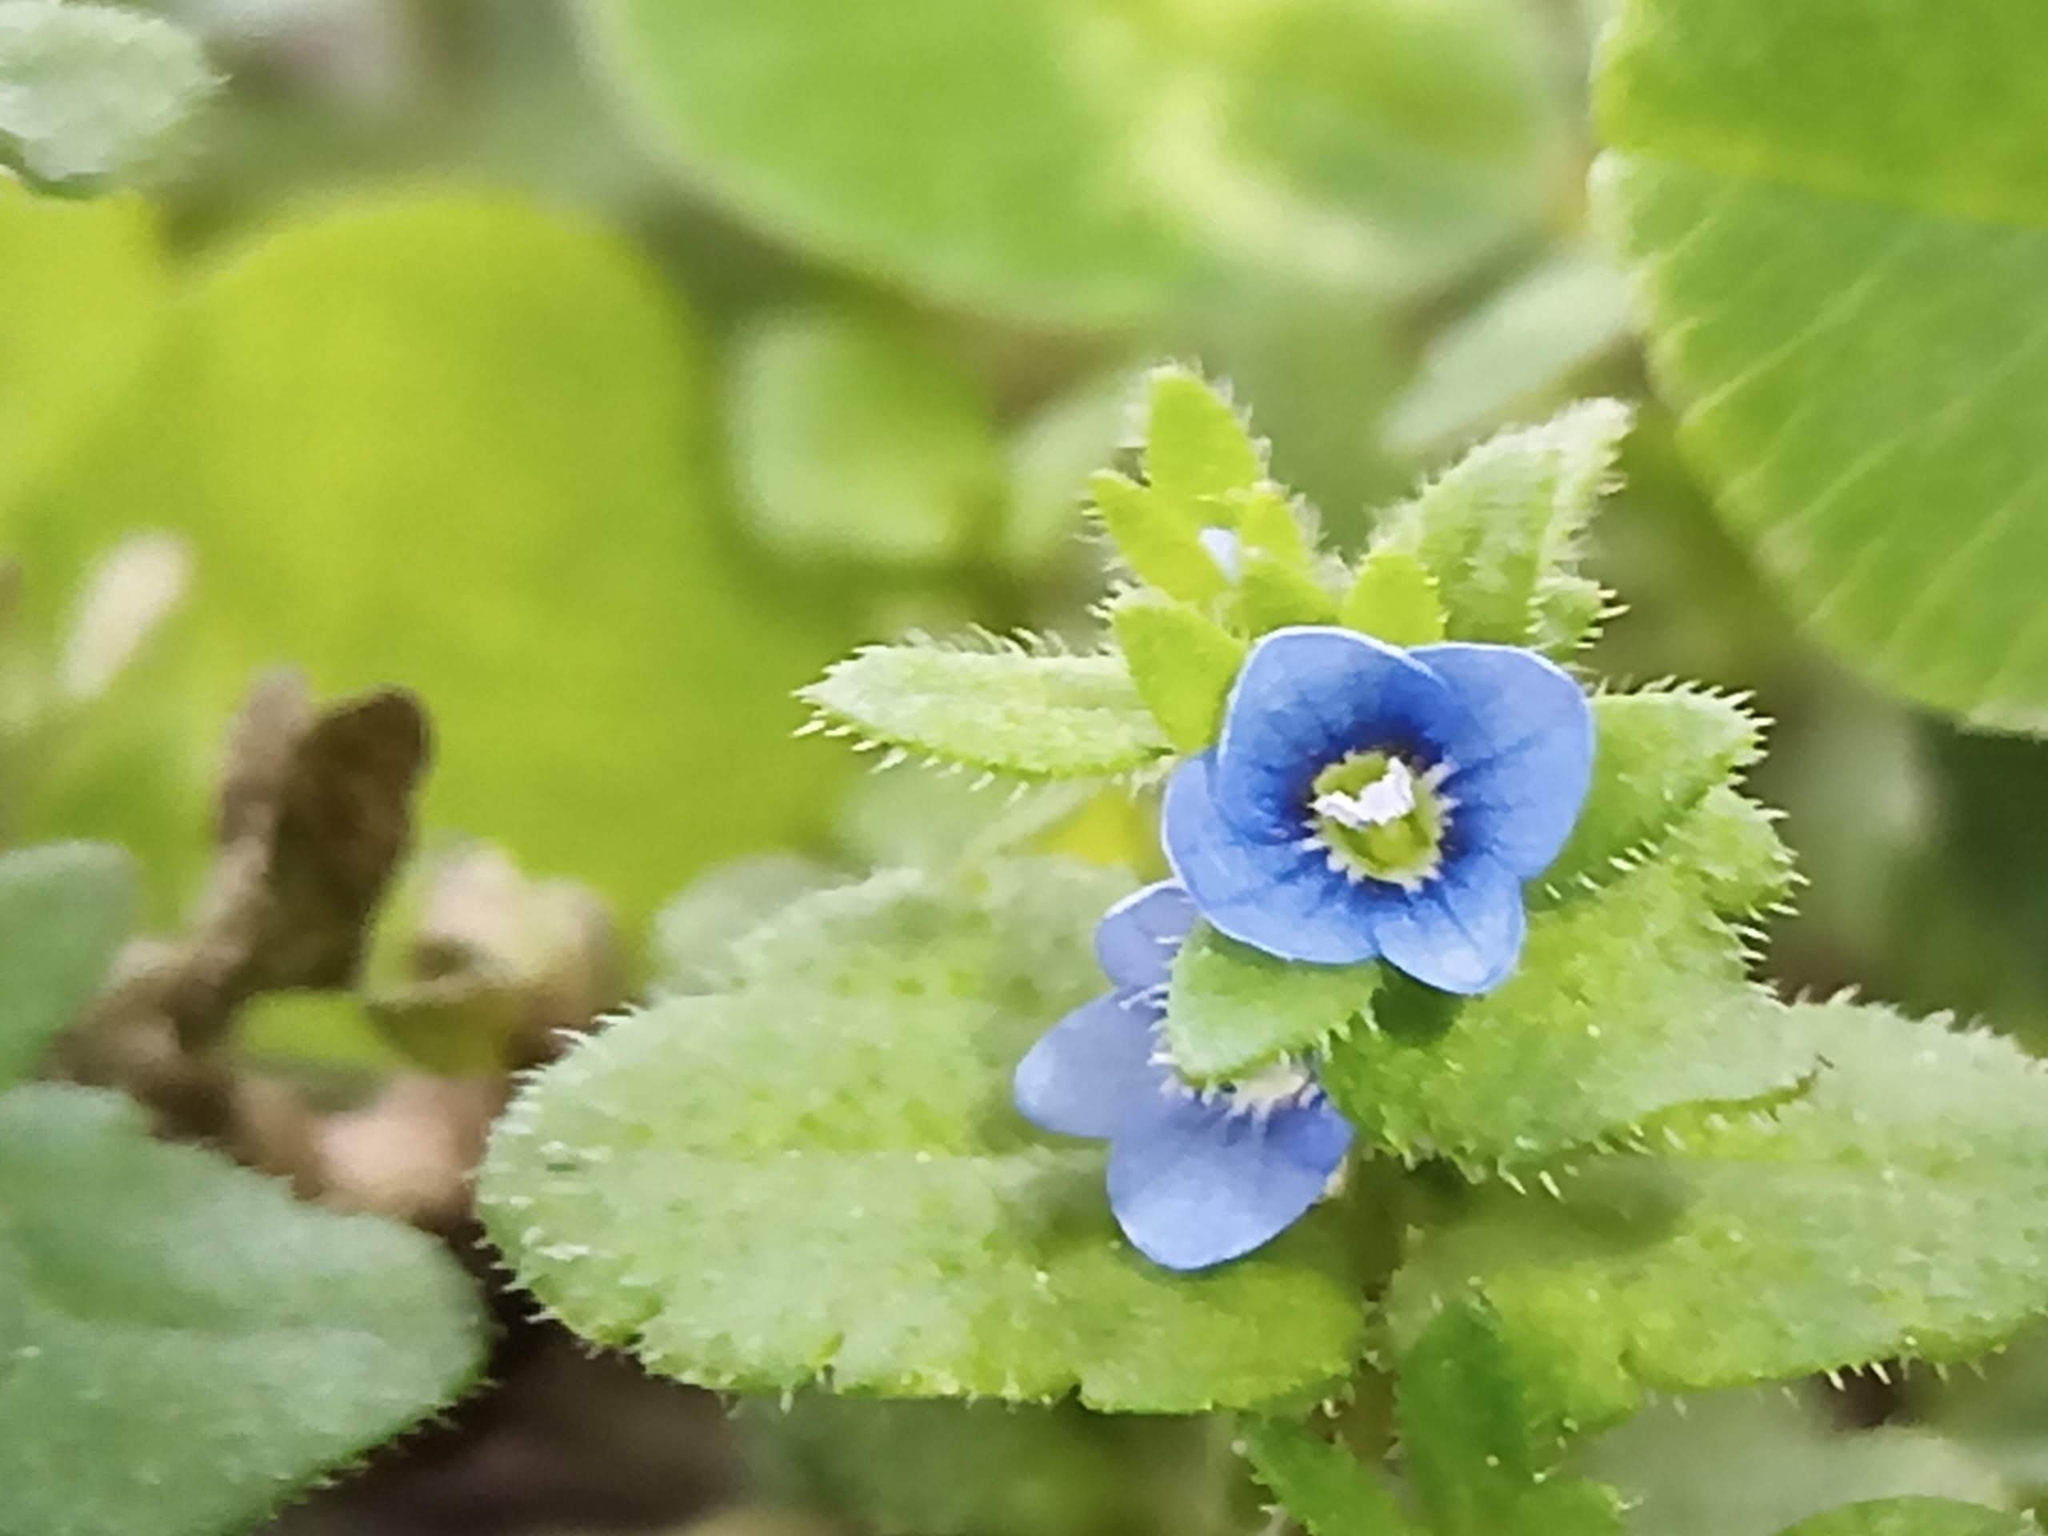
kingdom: Plantae
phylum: Tracheophyta
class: Magnoliopsida
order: Lamiales
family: Plantaginaceae
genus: Veronica
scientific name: Veronica arvensis
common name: Corn speedwell
